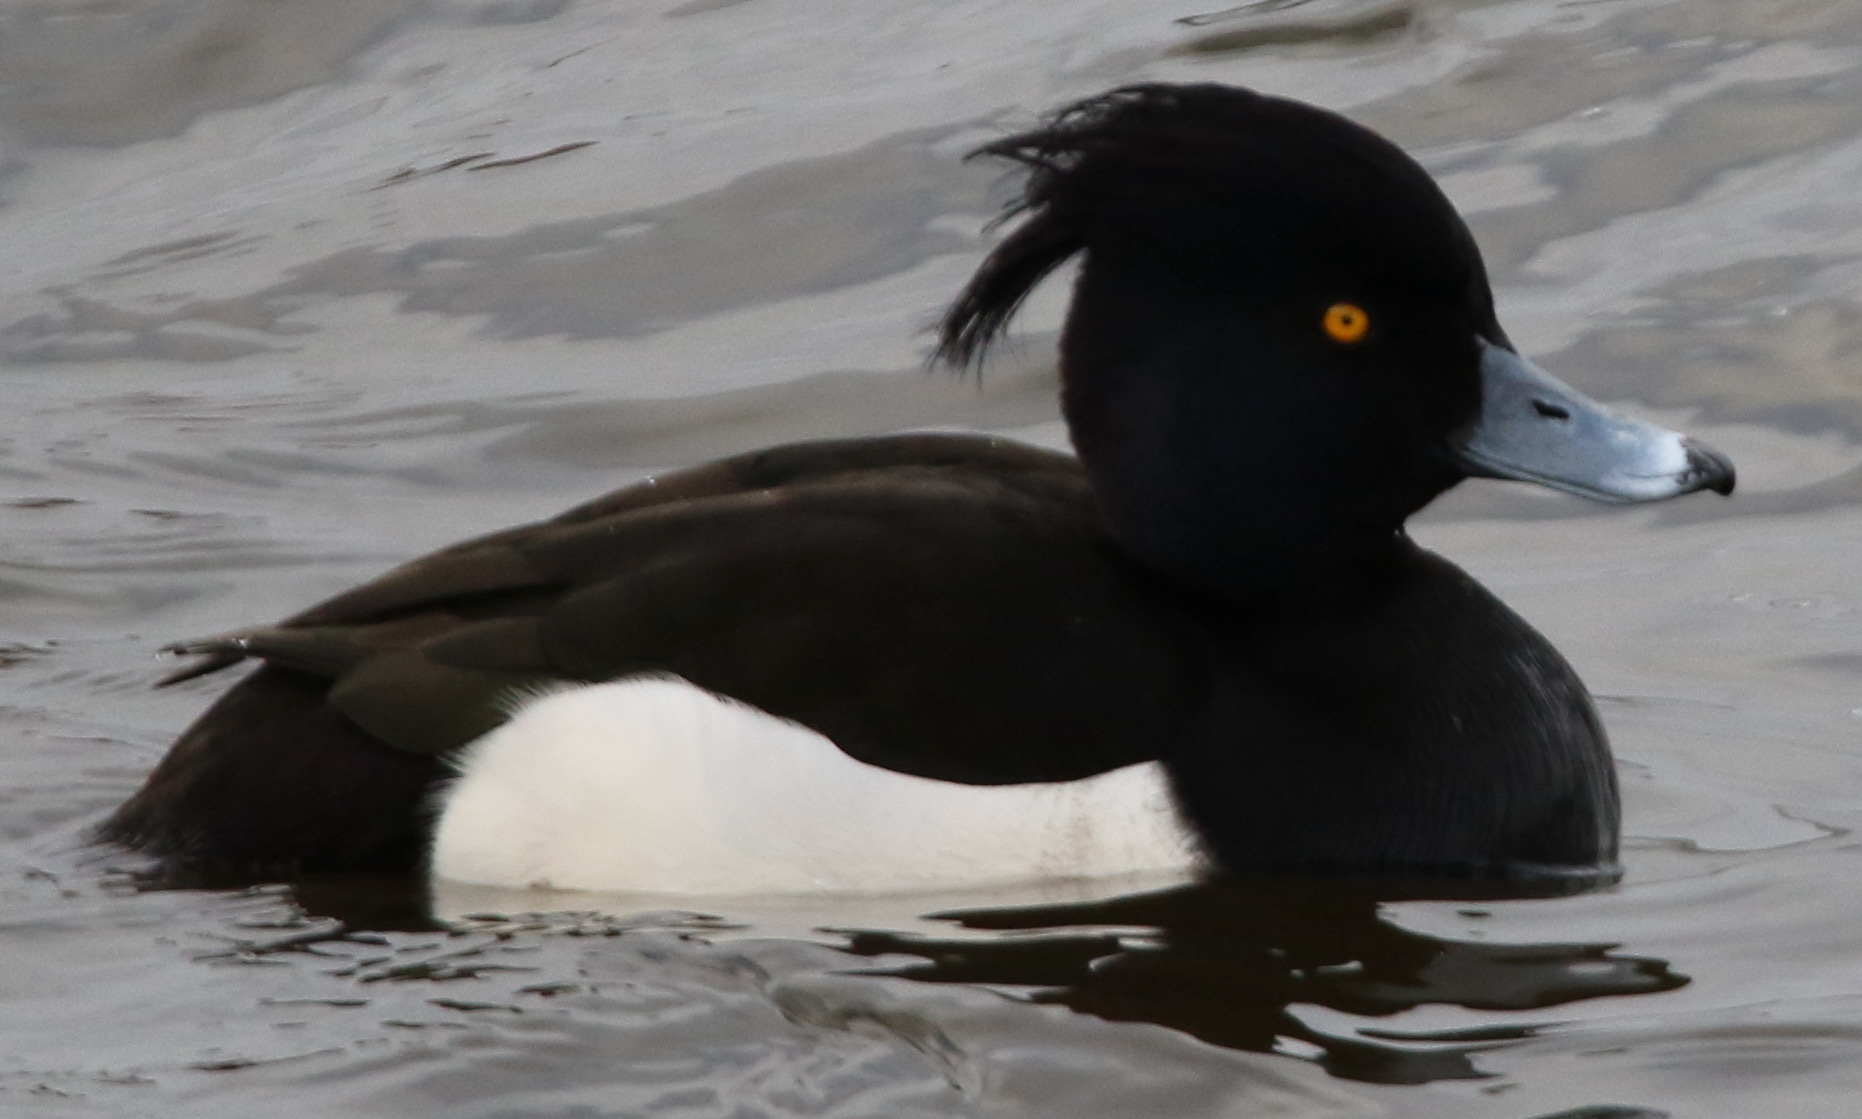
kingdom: Animalia
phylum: Chordata
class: Aves
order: Anseriformes
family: Anatidae
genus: Aythya
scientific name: Aythya fuligula
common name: Tufted duck
